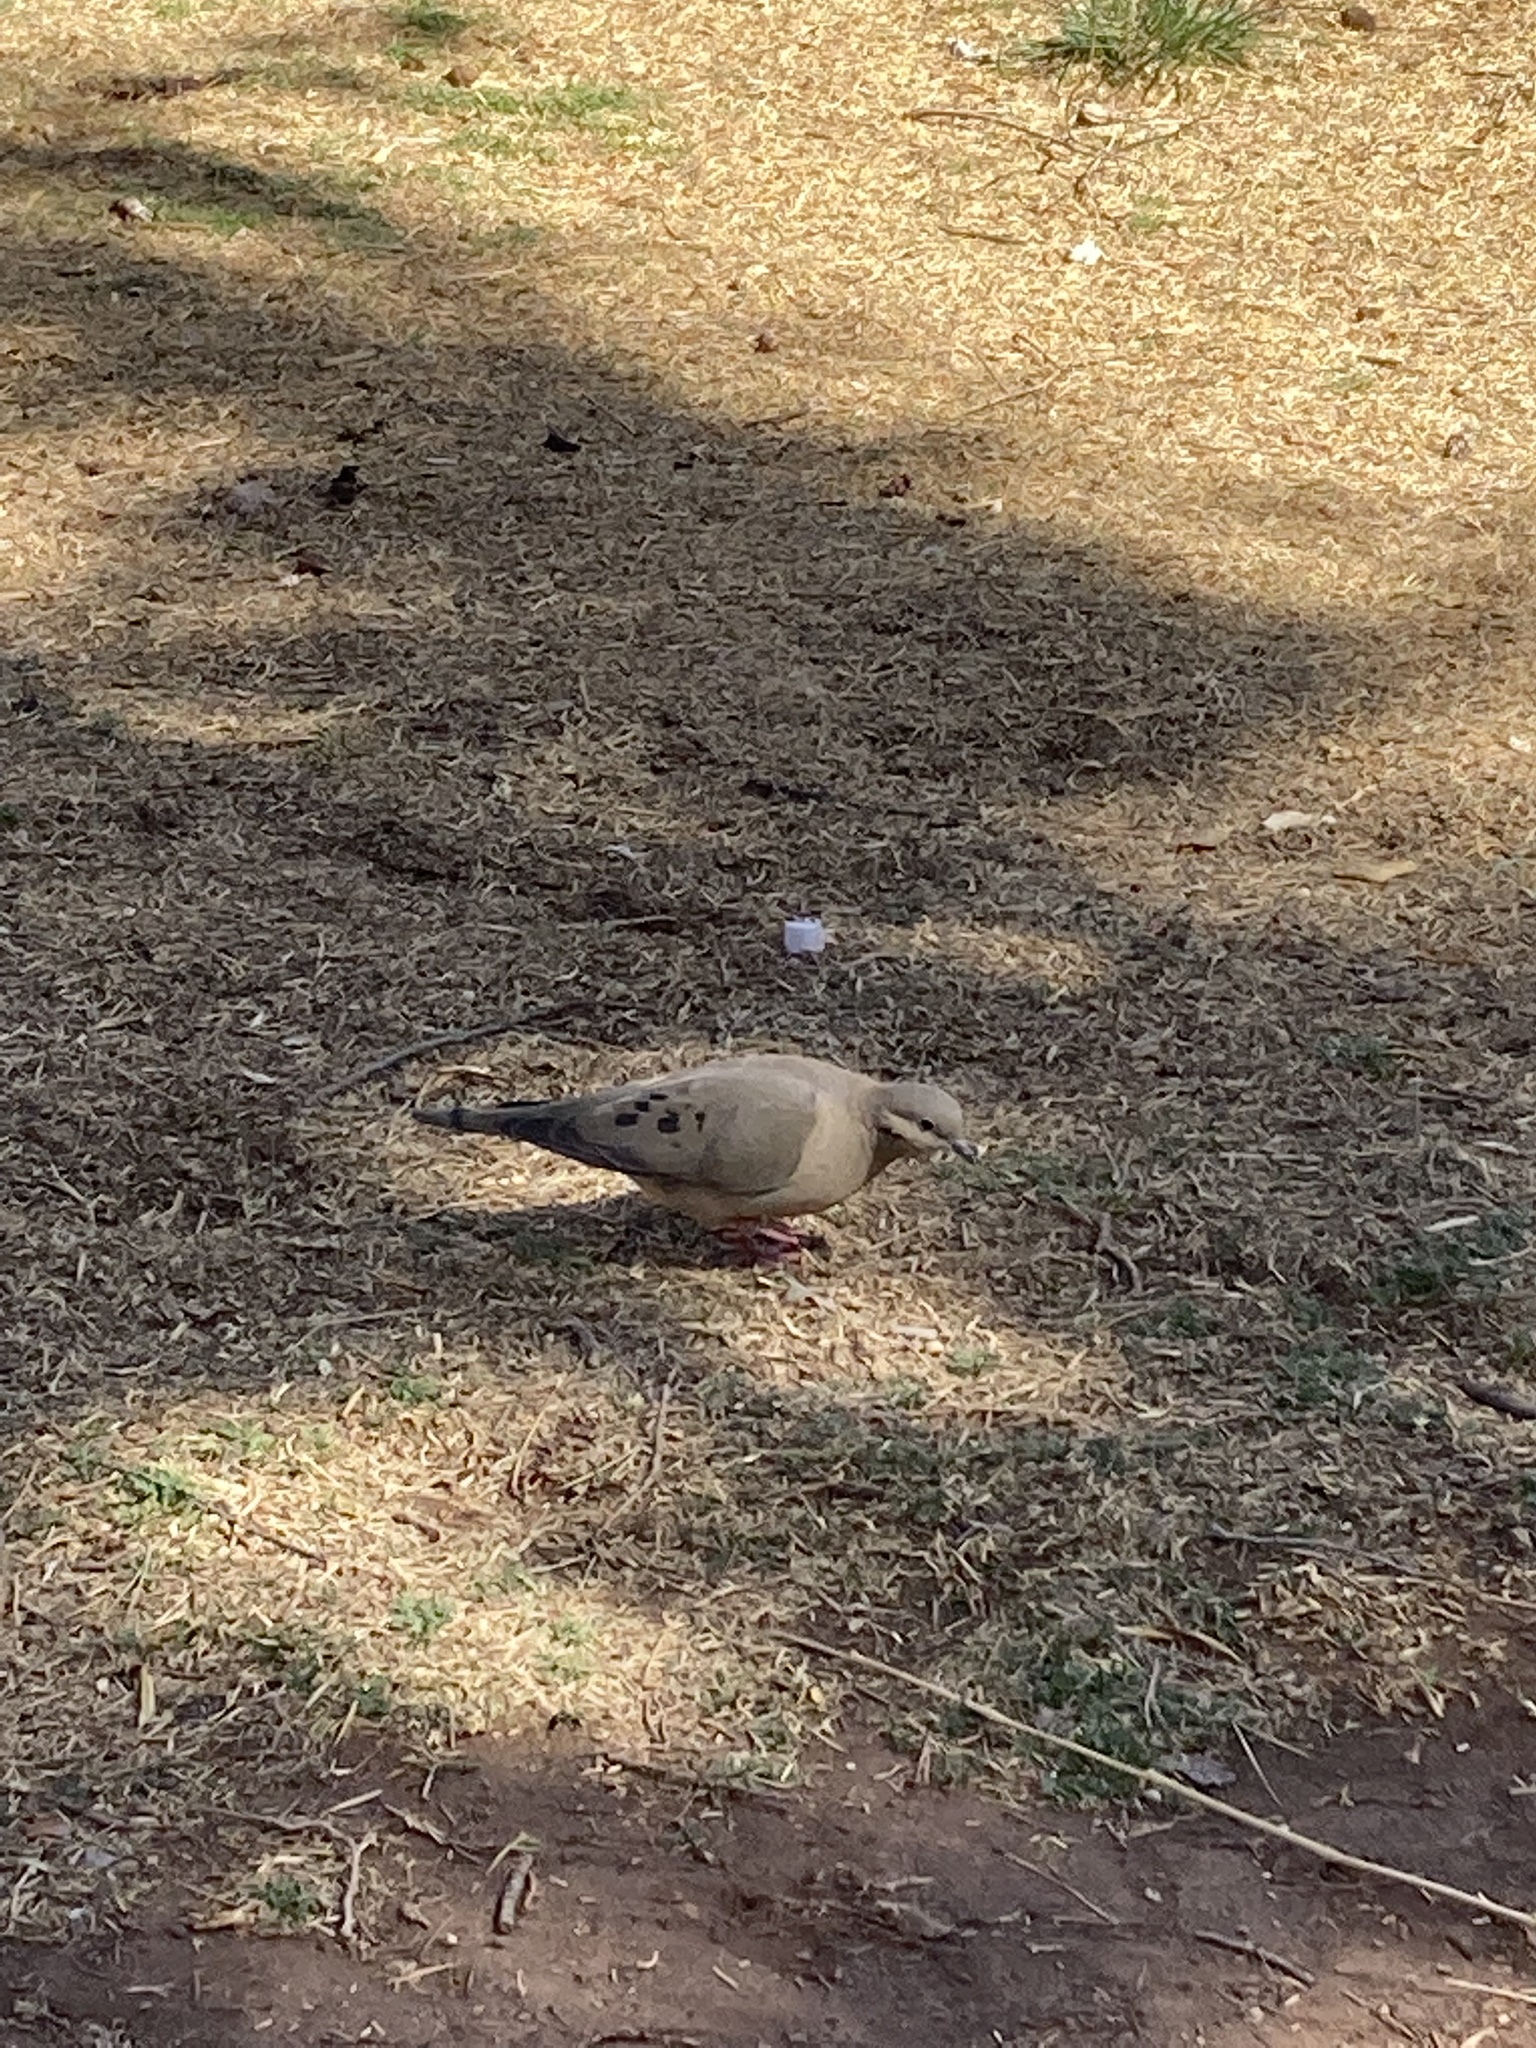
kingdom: Animalia
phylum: Chordata
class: Aves
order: Columbiformes
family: Columbidae
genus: Zenaida
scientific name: Zenaida auriculata
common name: Eared dove
